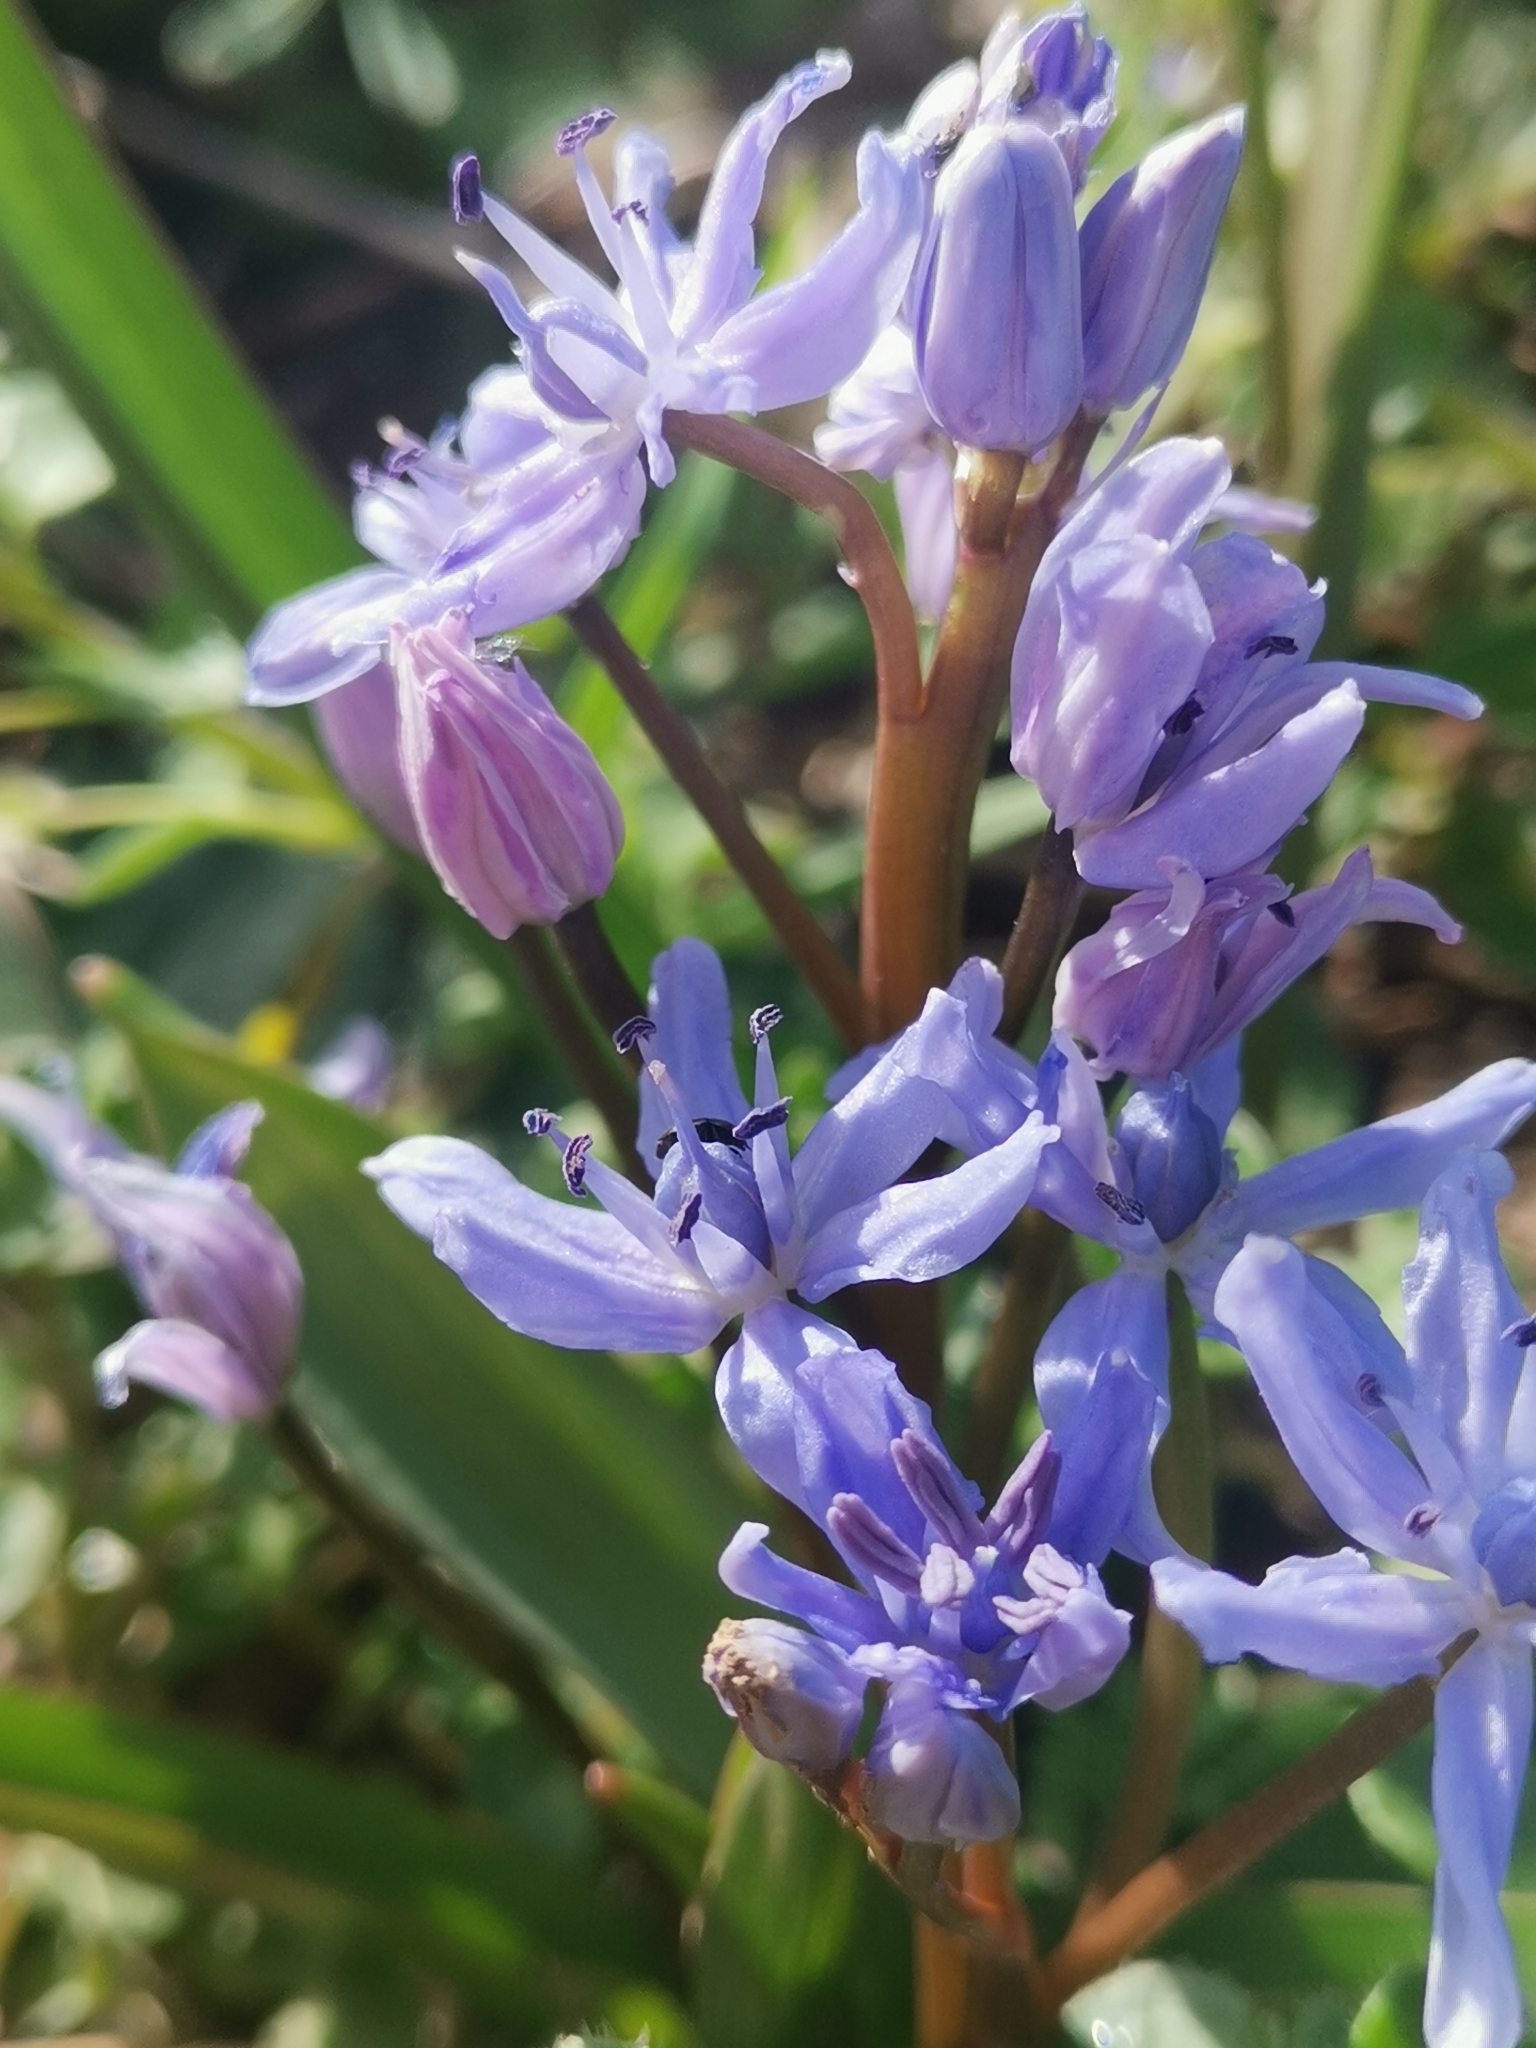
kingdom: Plantae
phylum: Tracheophyta
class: Liliopsida
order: Asparagales
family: Asparagaceae
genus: Scilla
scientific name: Scilla bifolia
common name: Alpine squill
